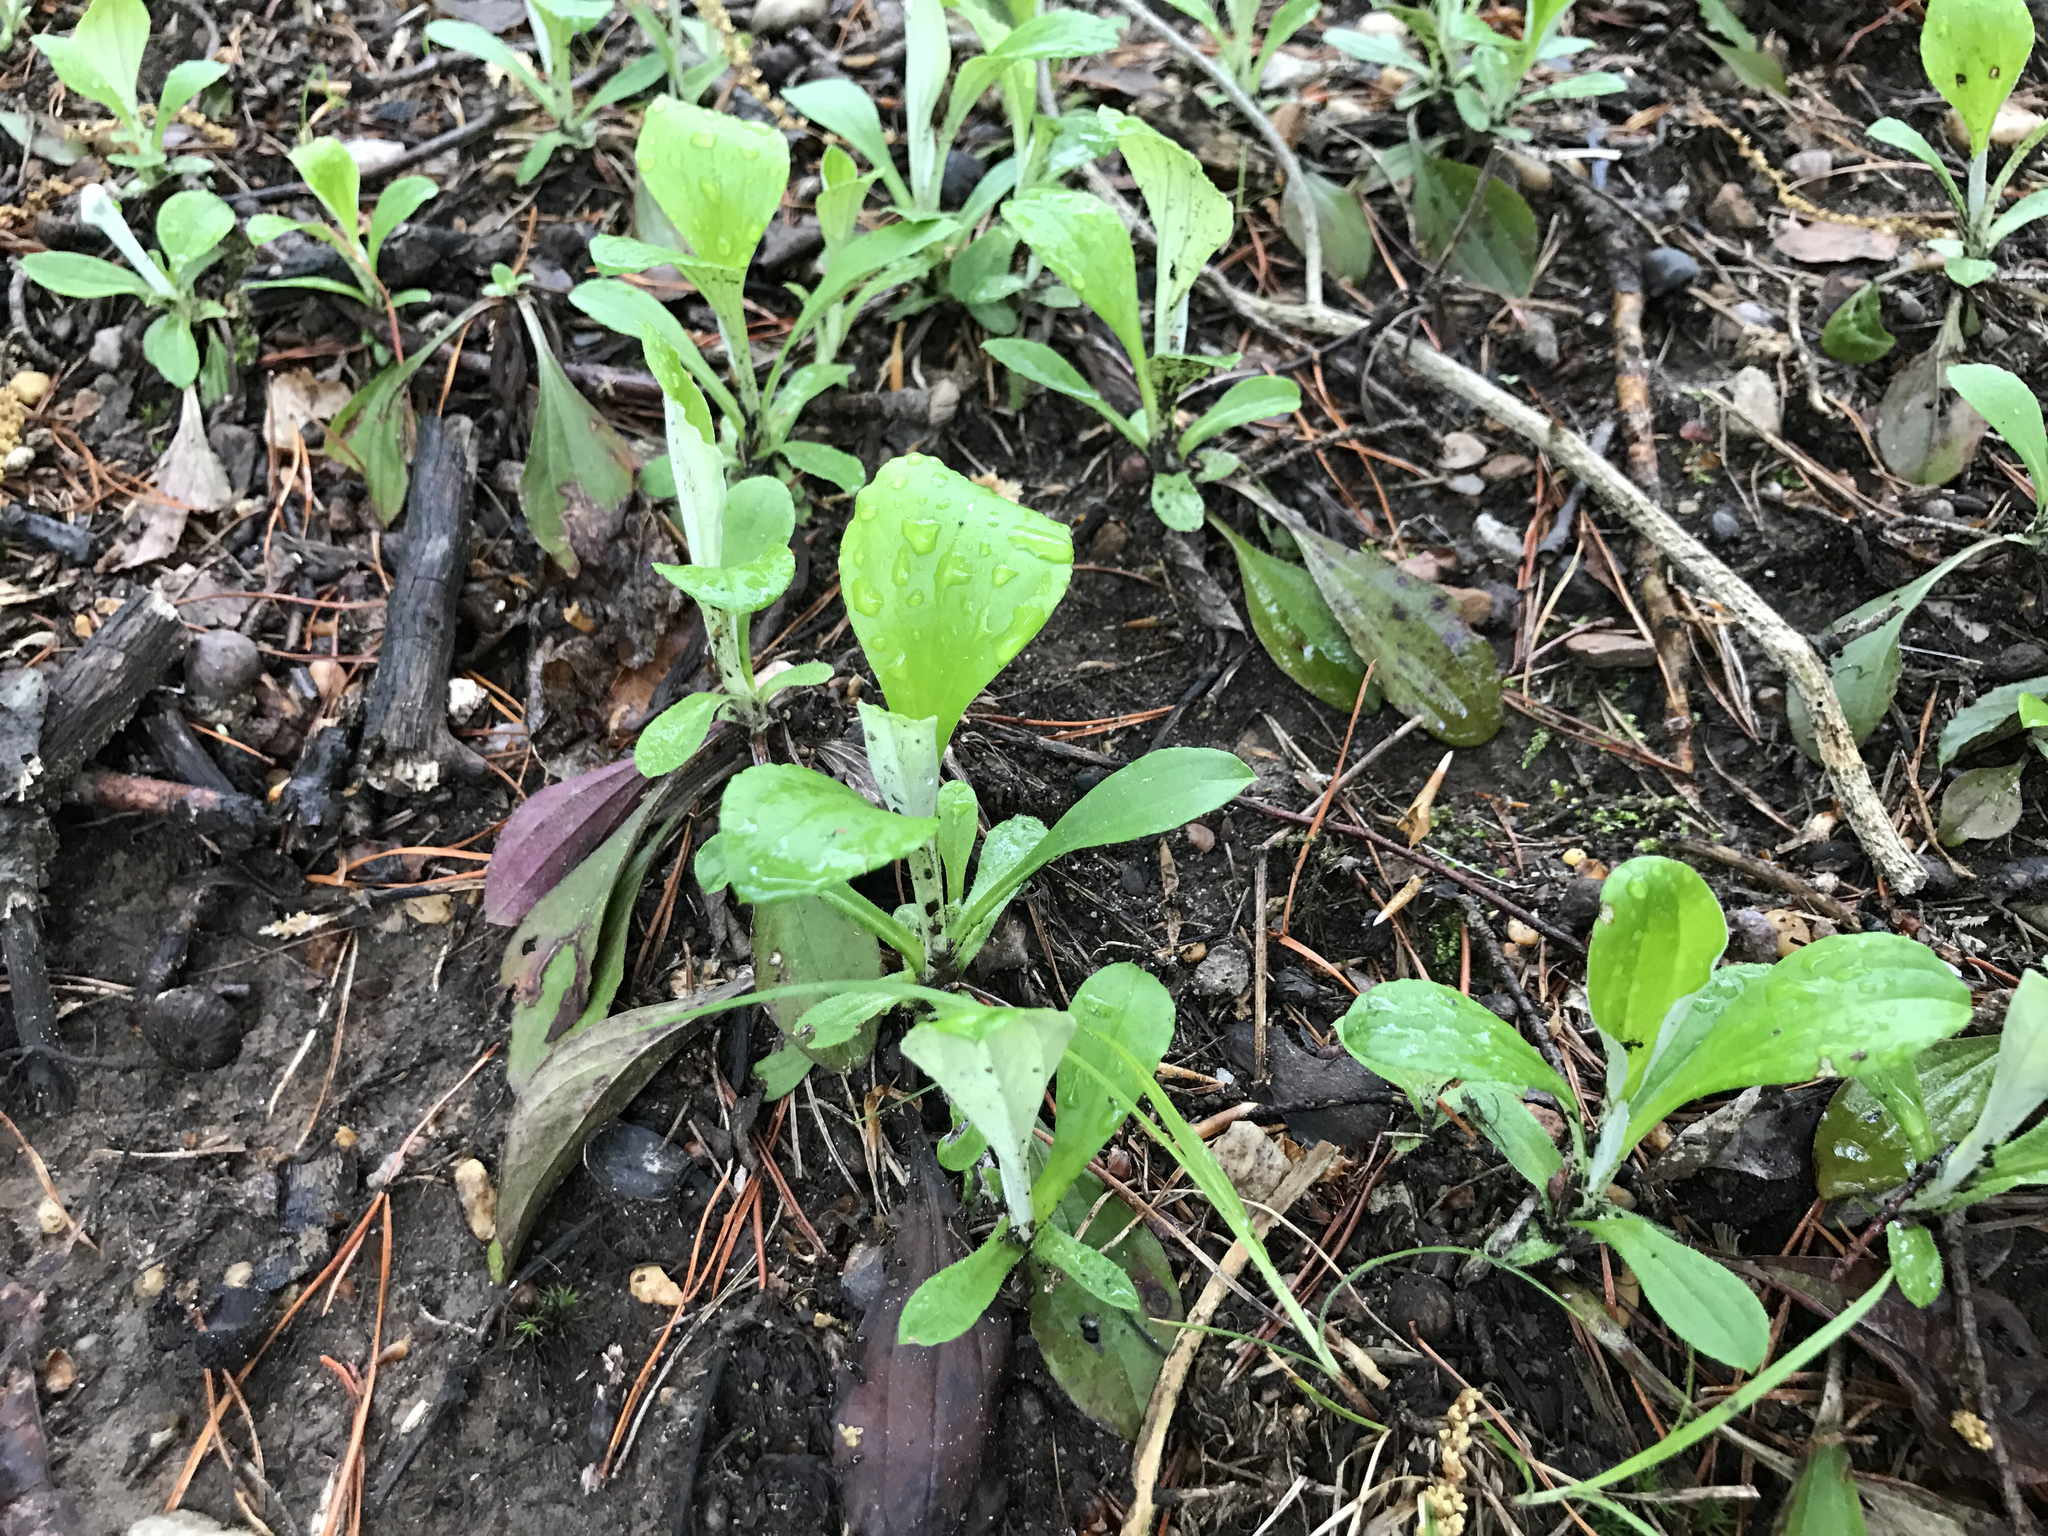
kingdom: Plantae
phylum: Tracheophyta
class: Magnoliopsida
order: Asterales
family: Asteraceae
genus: Antennaria
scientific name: Antennaria plantaginifolia
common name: Plantain-leaved pussytoes
